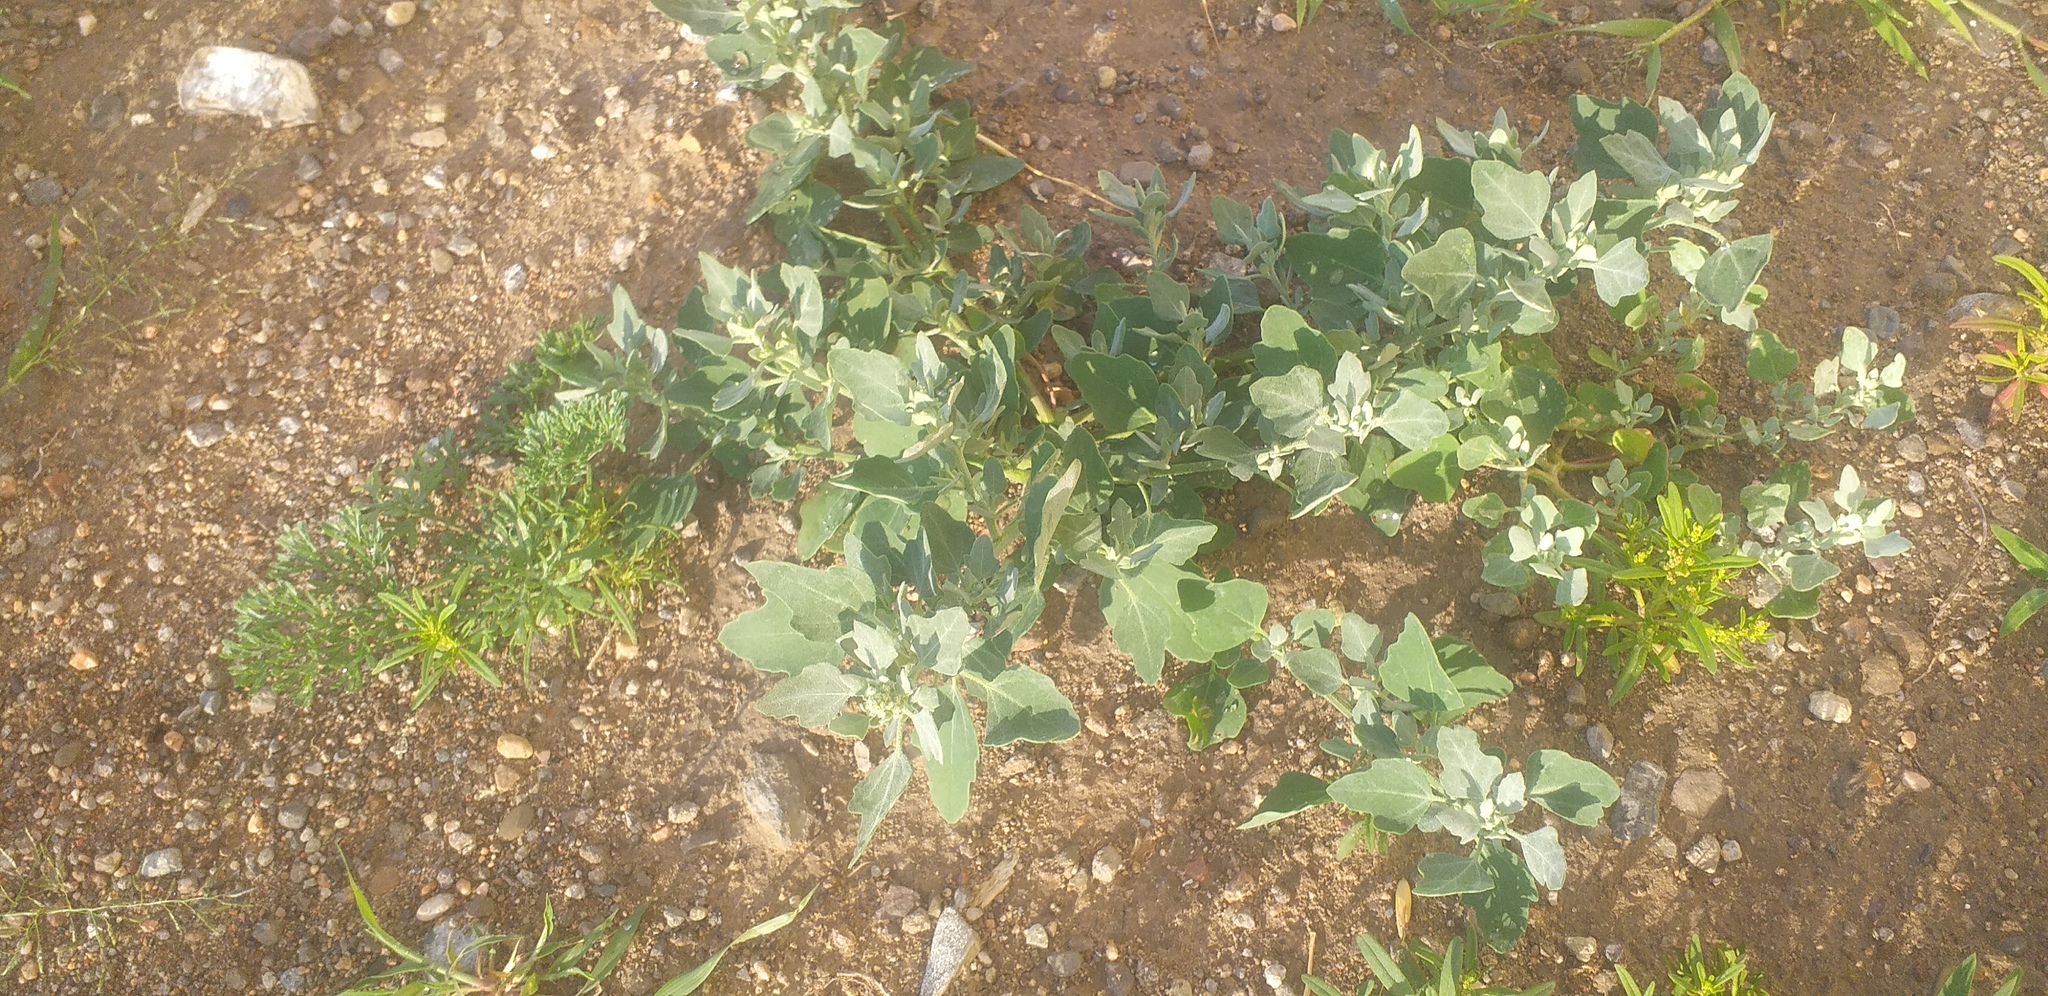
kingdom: Plantae
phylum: Tracheophyta
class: Magnoliopsida
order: Caryophyllales
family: Amaranthaceae
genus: Chenopodium
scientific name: Chenopodium album
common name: Fat-hen
